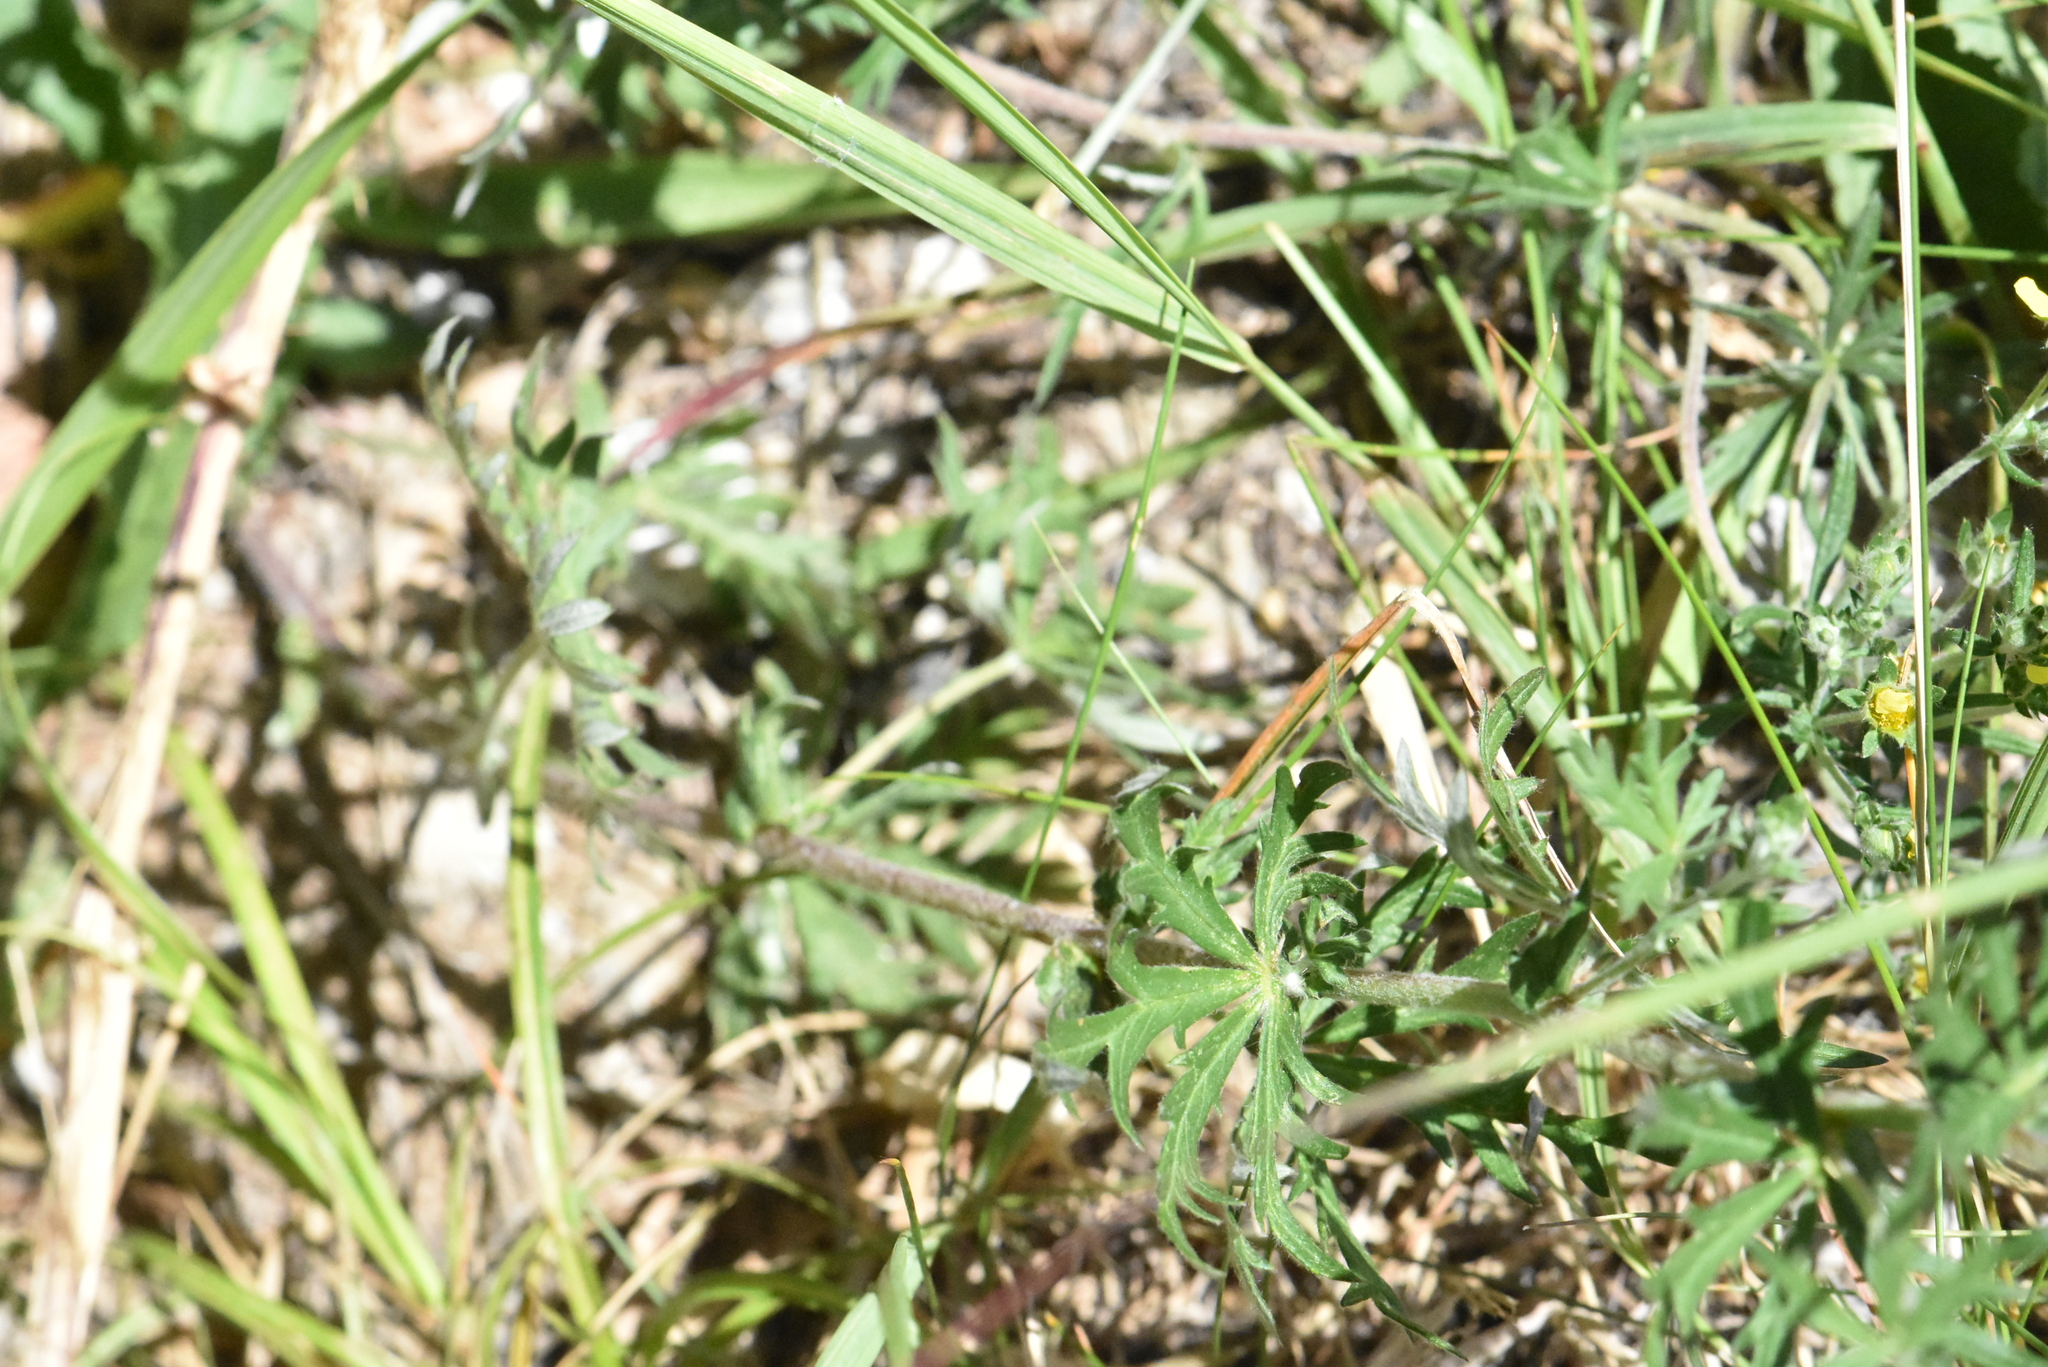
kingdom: Plantae
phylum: Tracheophyta
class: Magnoliopsida
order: Rosales
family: Rosaceae
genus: Potentilla
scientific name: Potentilla argentea
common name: Hoary cinquefoil
